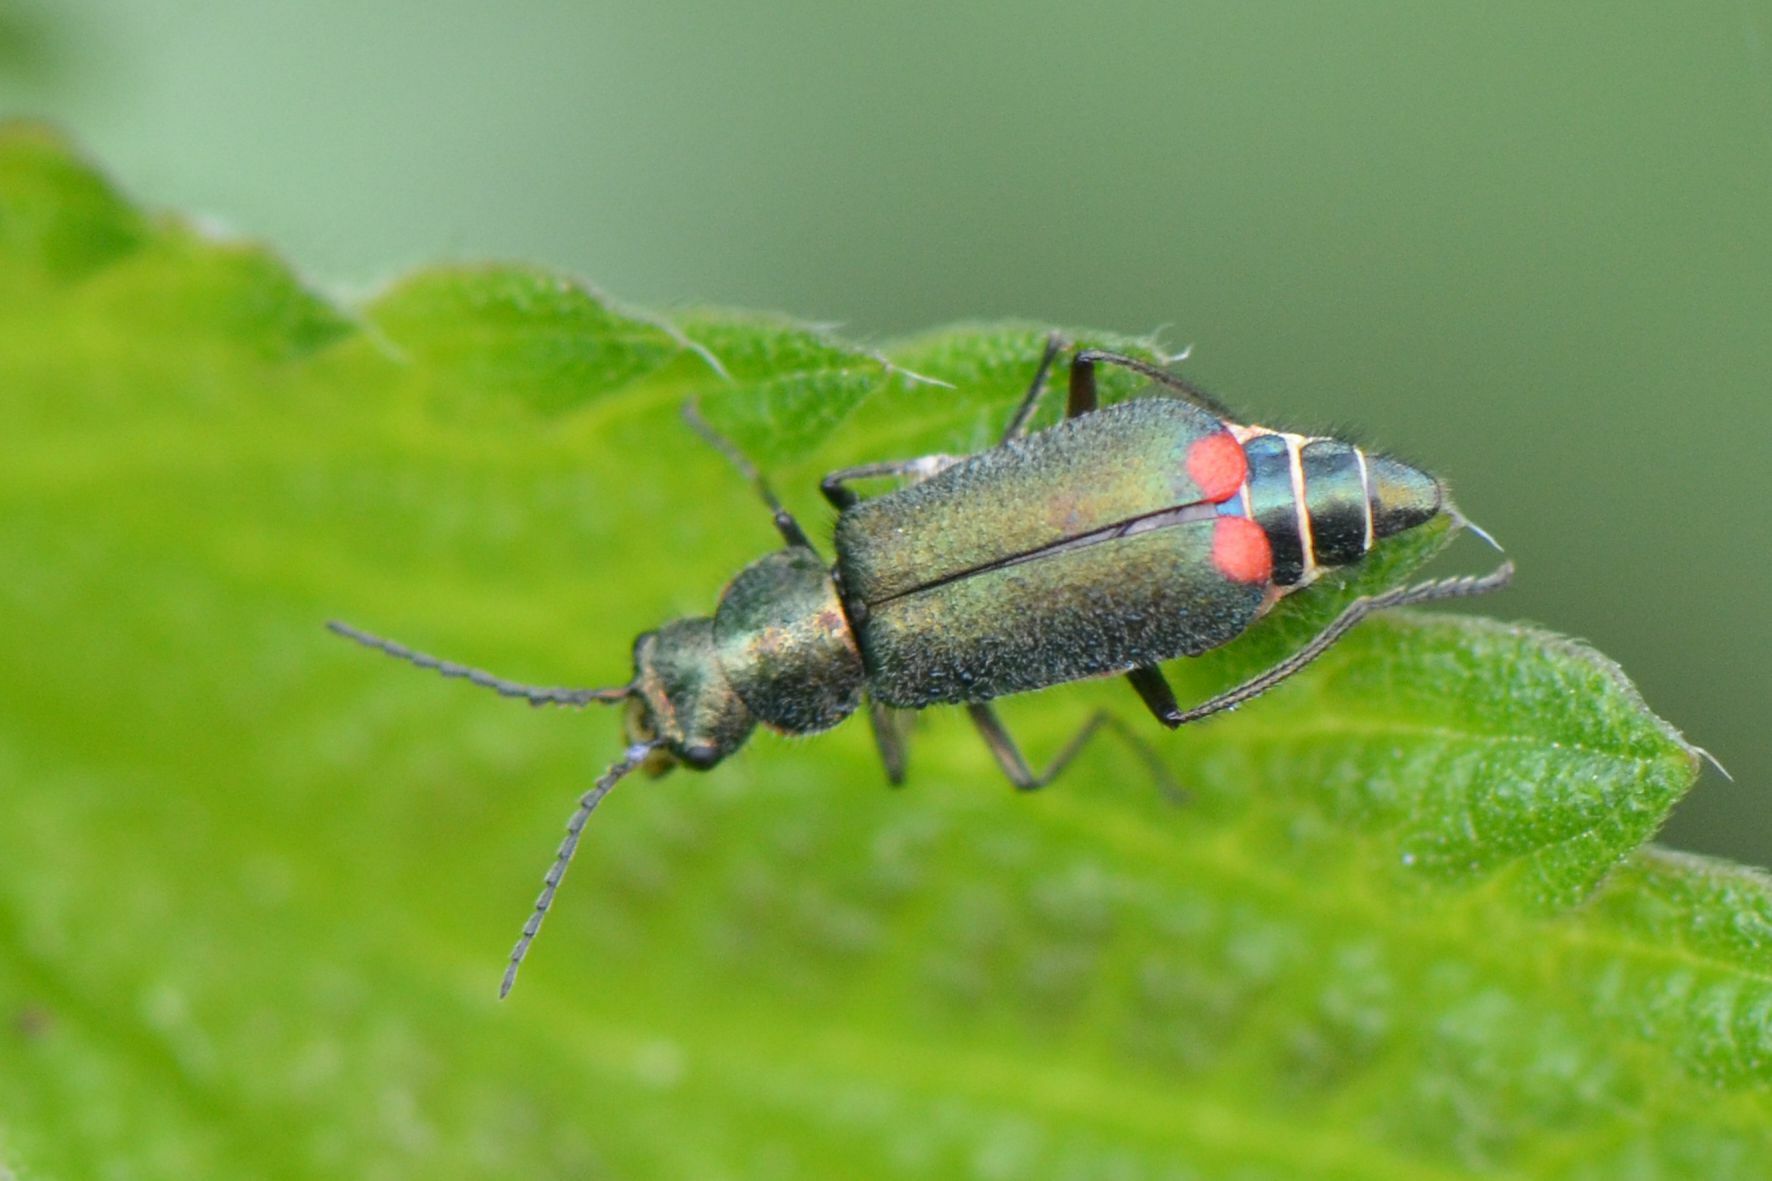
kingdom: Animalia
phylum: Arthropoda
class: Insecta
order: Coleoptera
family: Melyridae
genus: Malachius
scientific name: Malachius bipustulatus
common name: Malachite beetle
